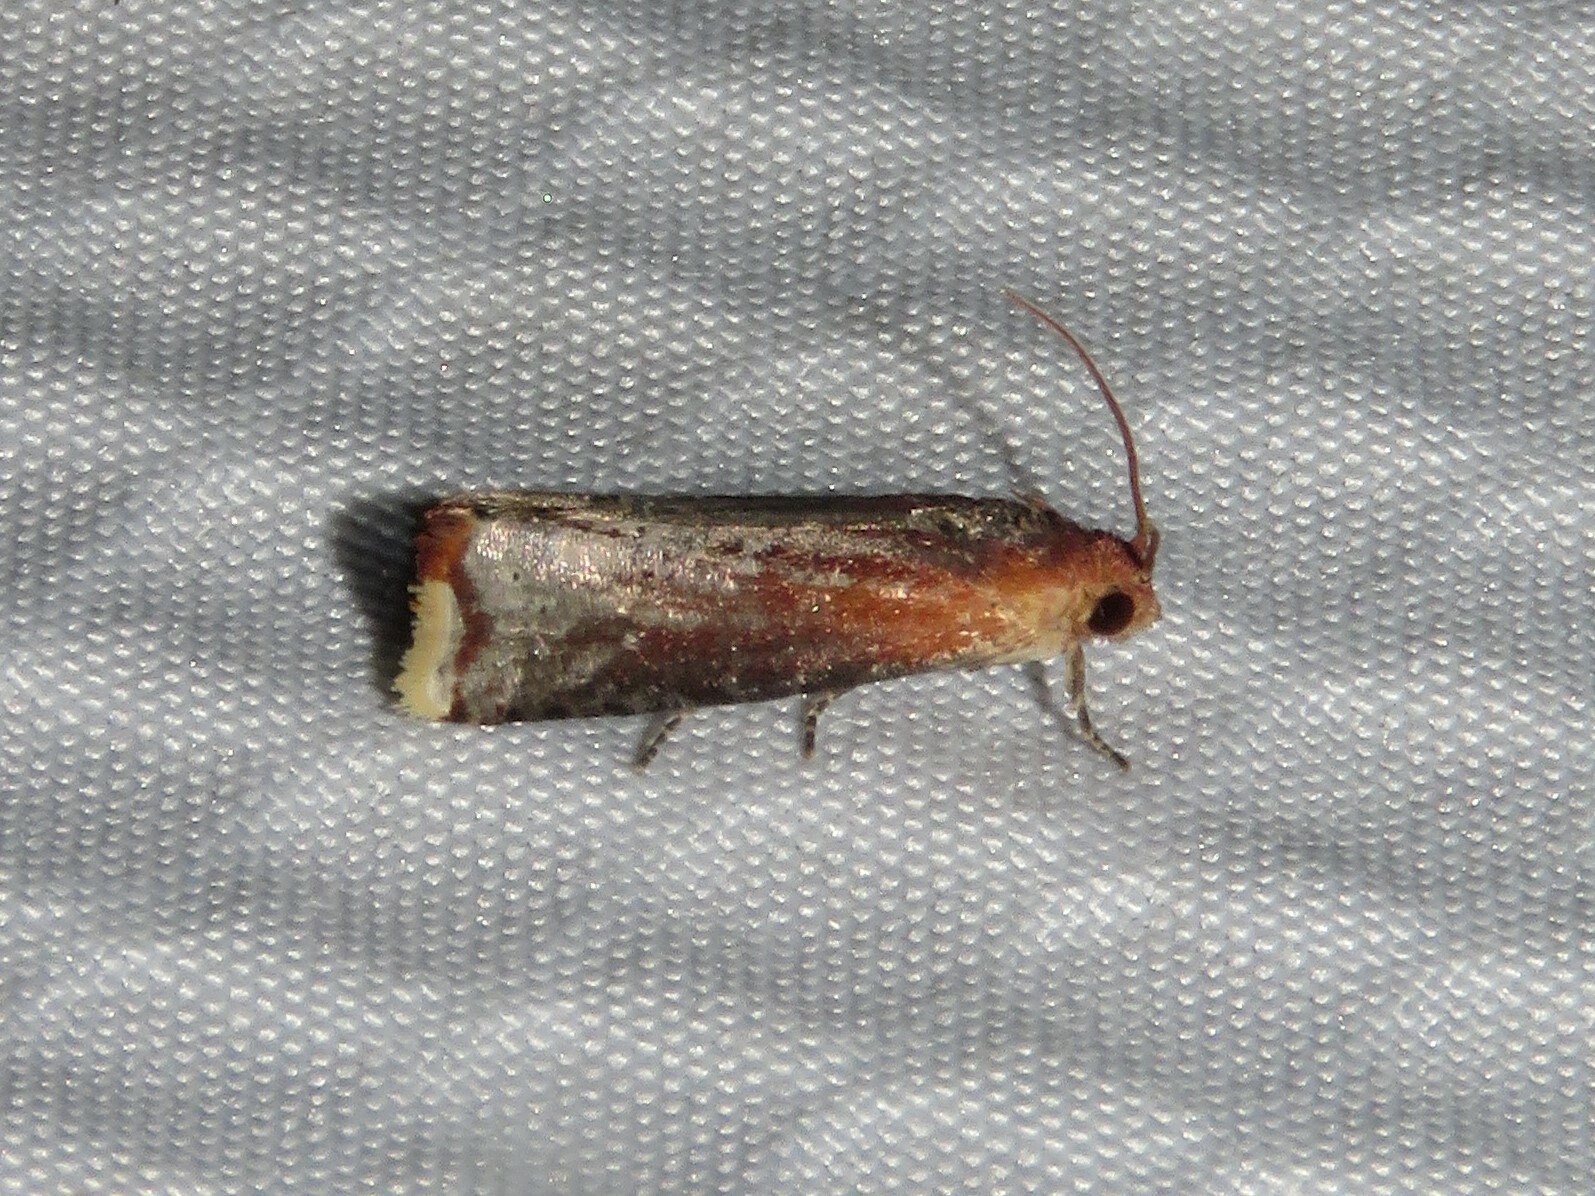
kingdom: Animalia
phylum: Arthropoda
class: Insecta
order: Lepidoptera
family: Tortricidae
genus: Pseudogalleria
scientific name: Pseudogalleria inimicella
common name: Inimical borer moth
